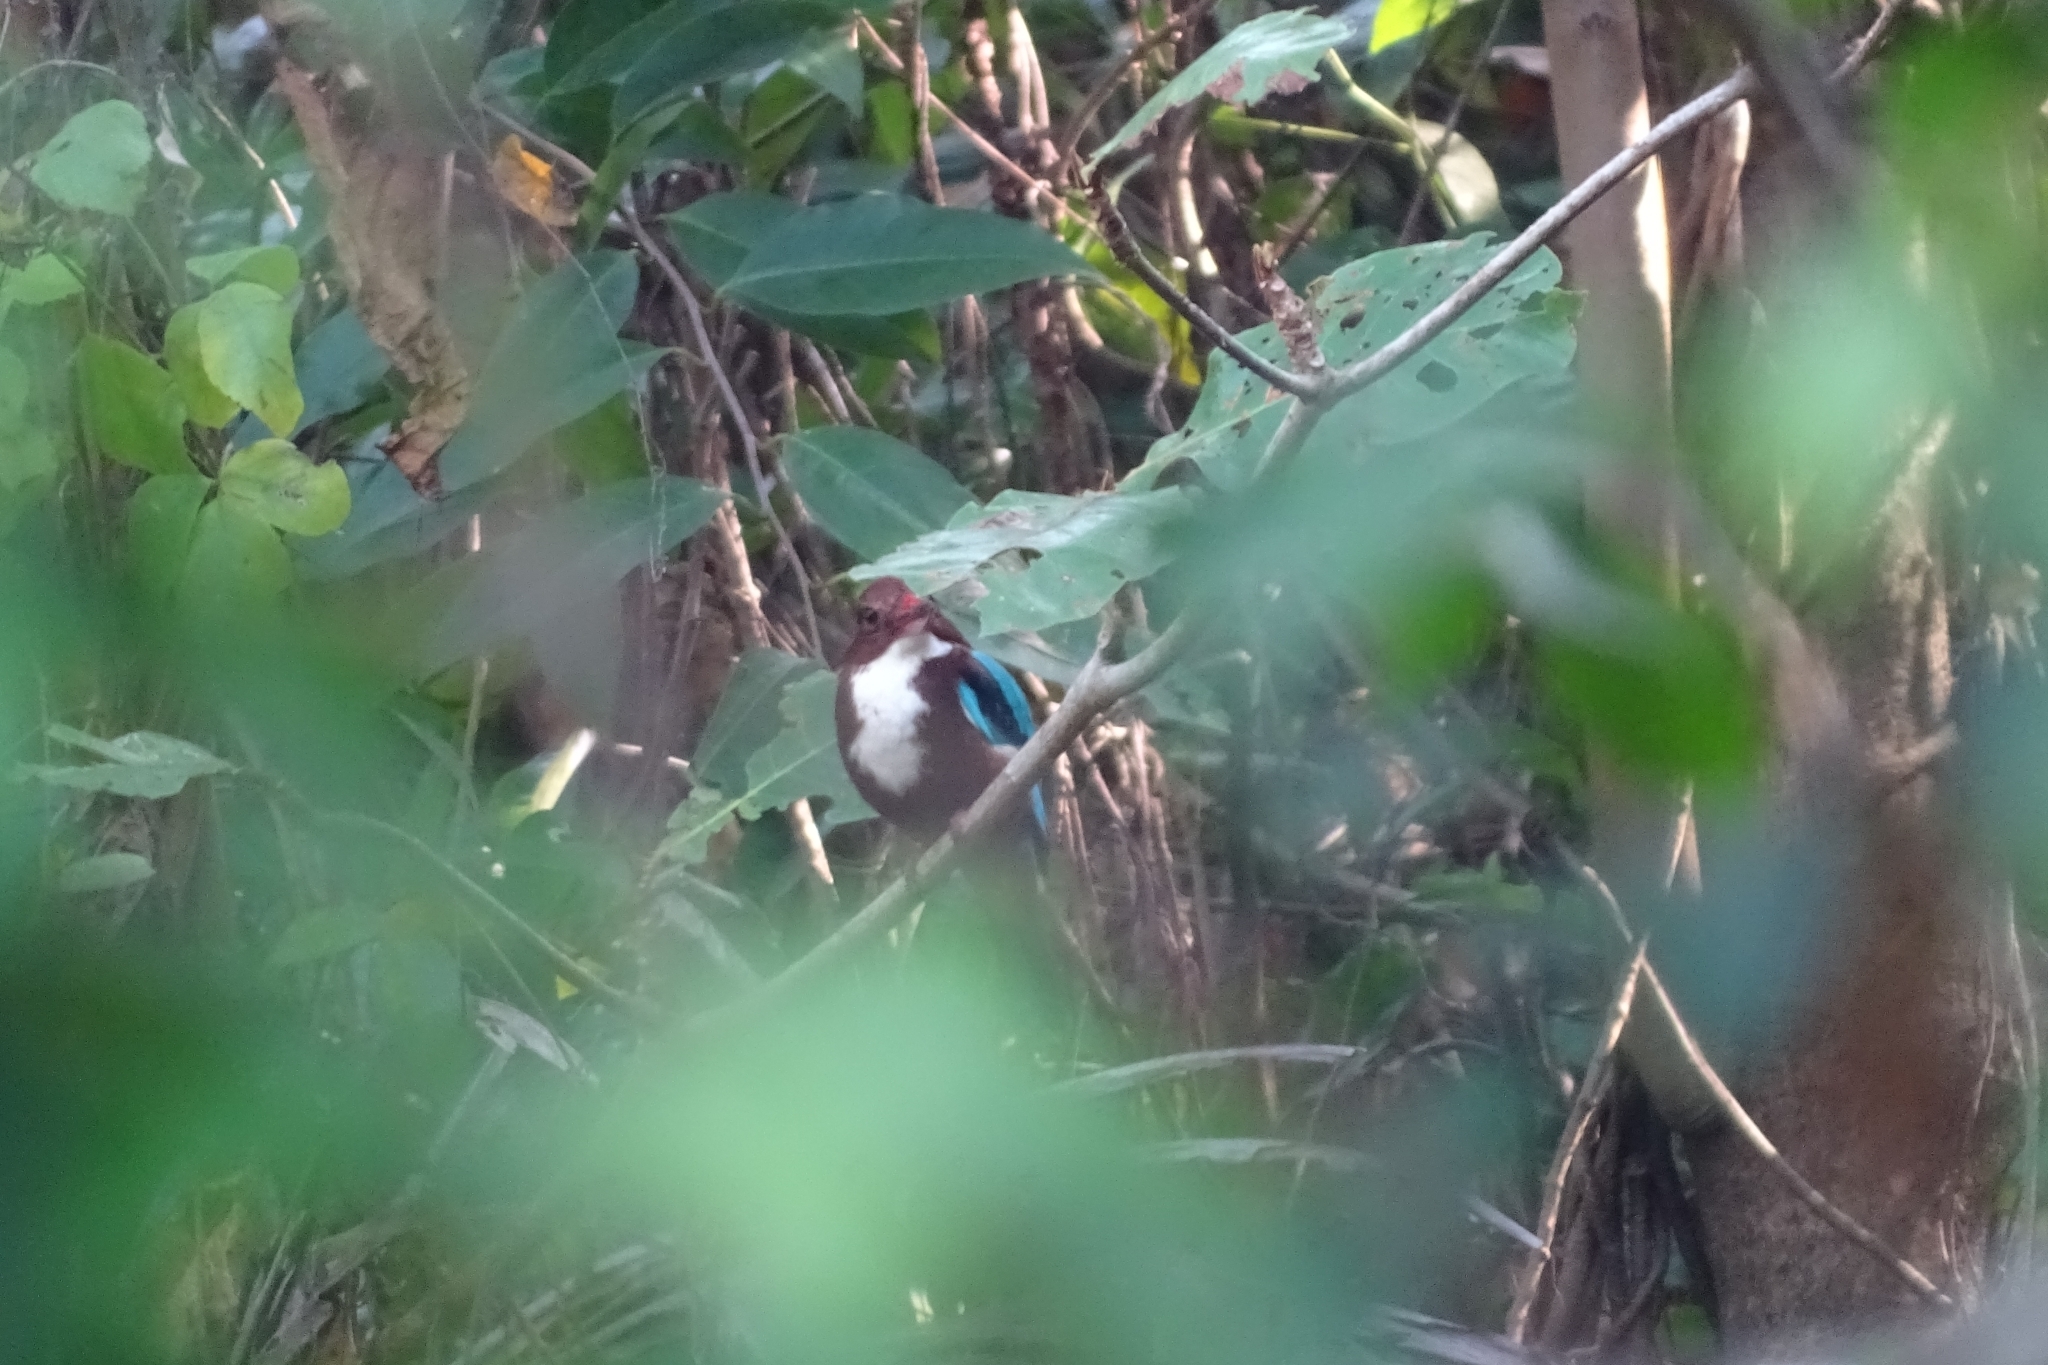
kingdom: Animalia
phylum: Chordata
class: Aves
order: Coraciiformes
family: Alcedinidae
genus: Halcyon
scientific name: Halcyon smyrnensis
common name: White-throated kingfisher
